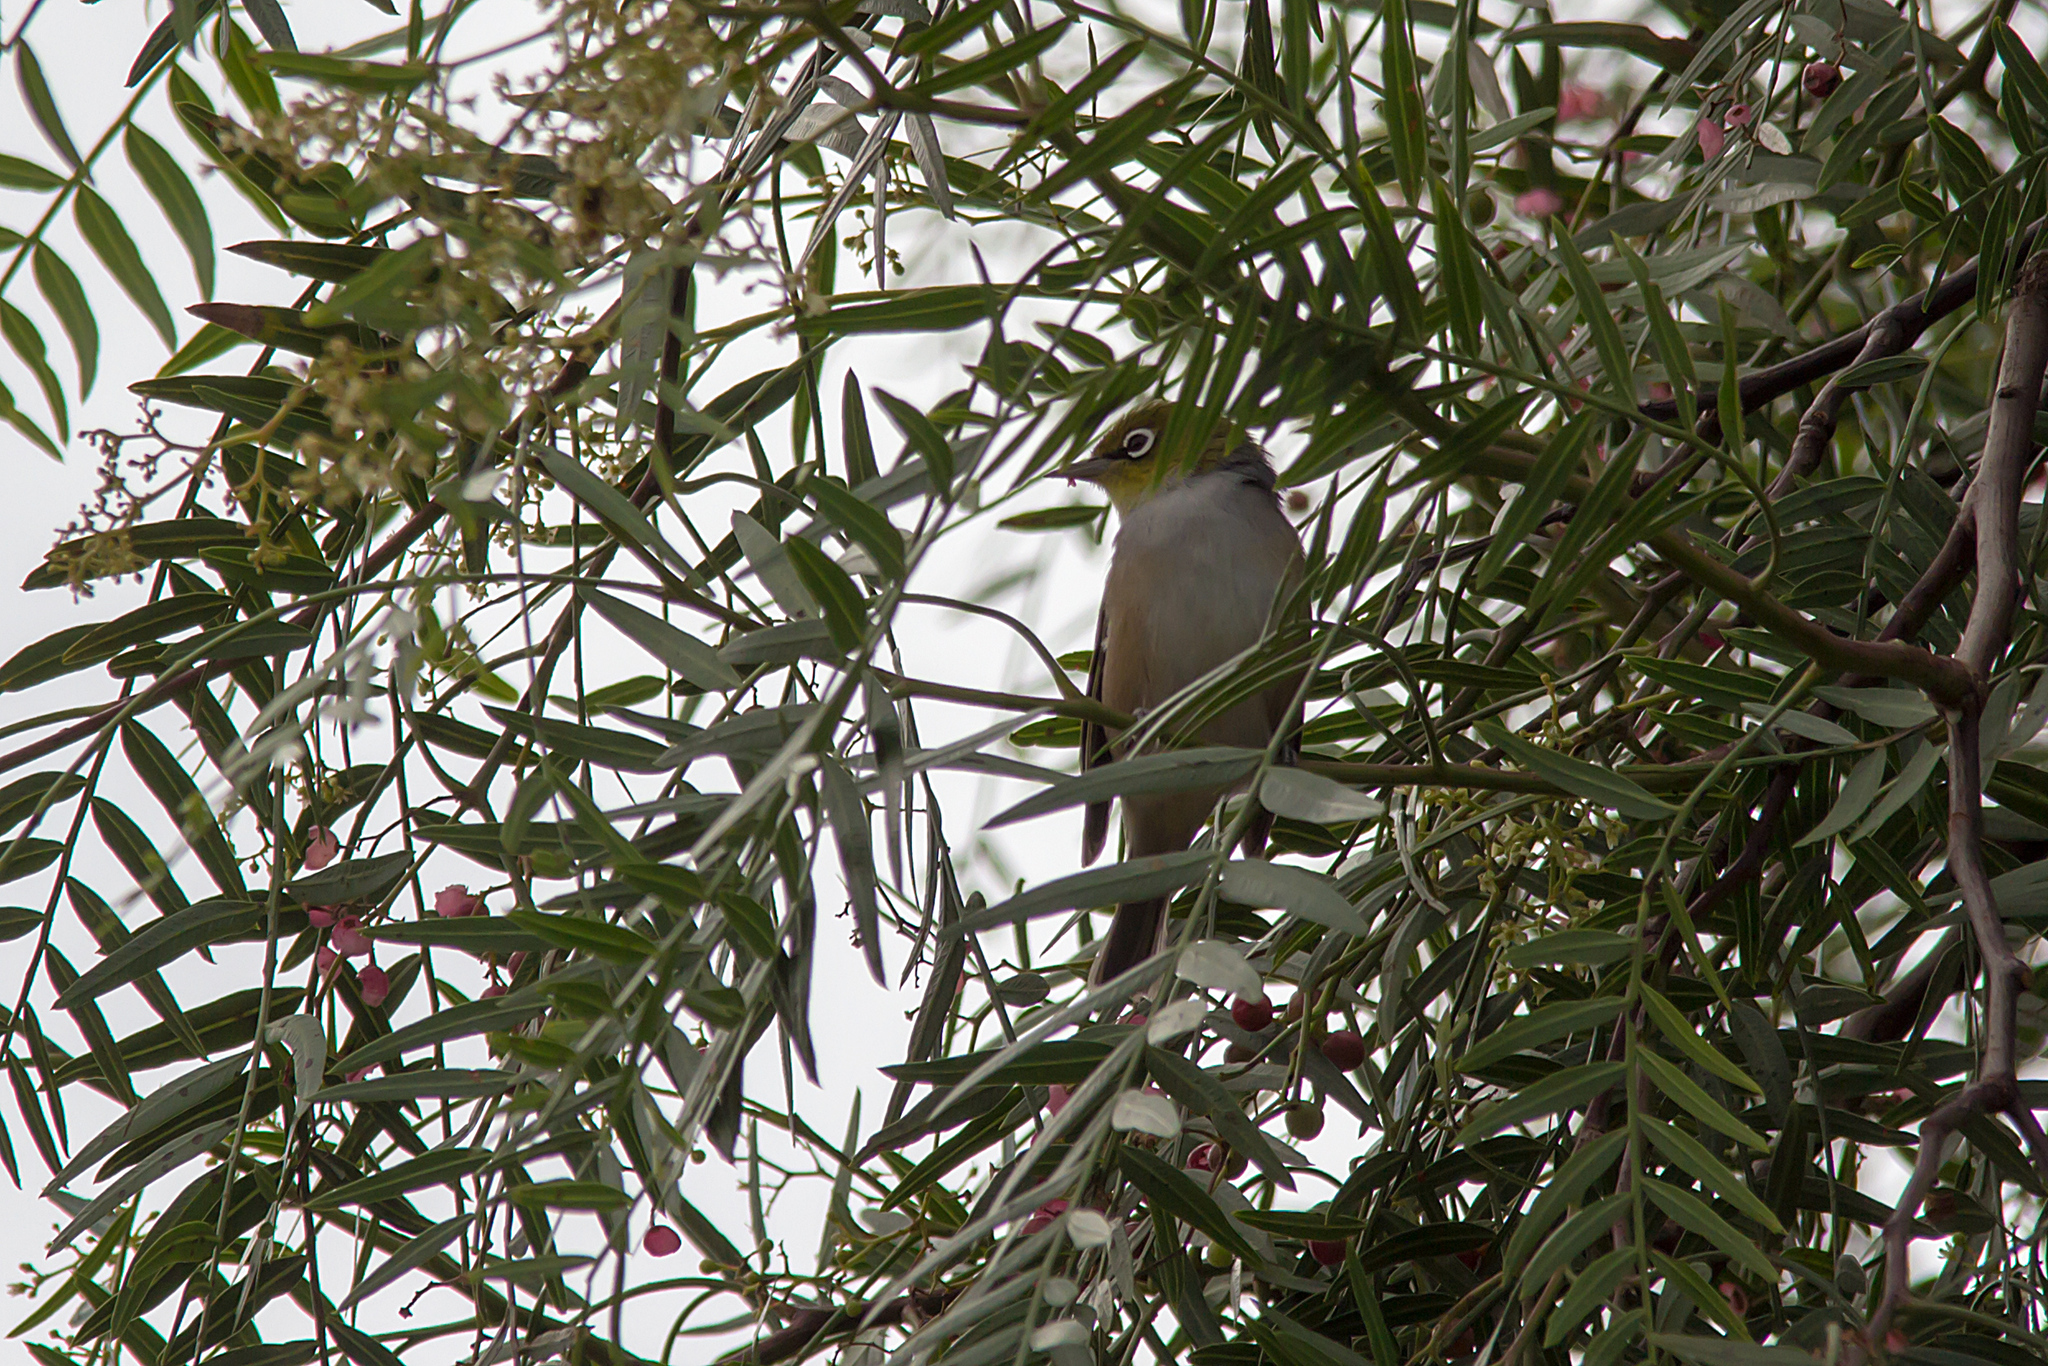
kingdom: Animalia
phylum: Chordata
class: Aves
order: Passeriformes
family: Zosteropidae
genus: Zosterops
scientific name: Zosterops lateralis
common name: Silvereye
